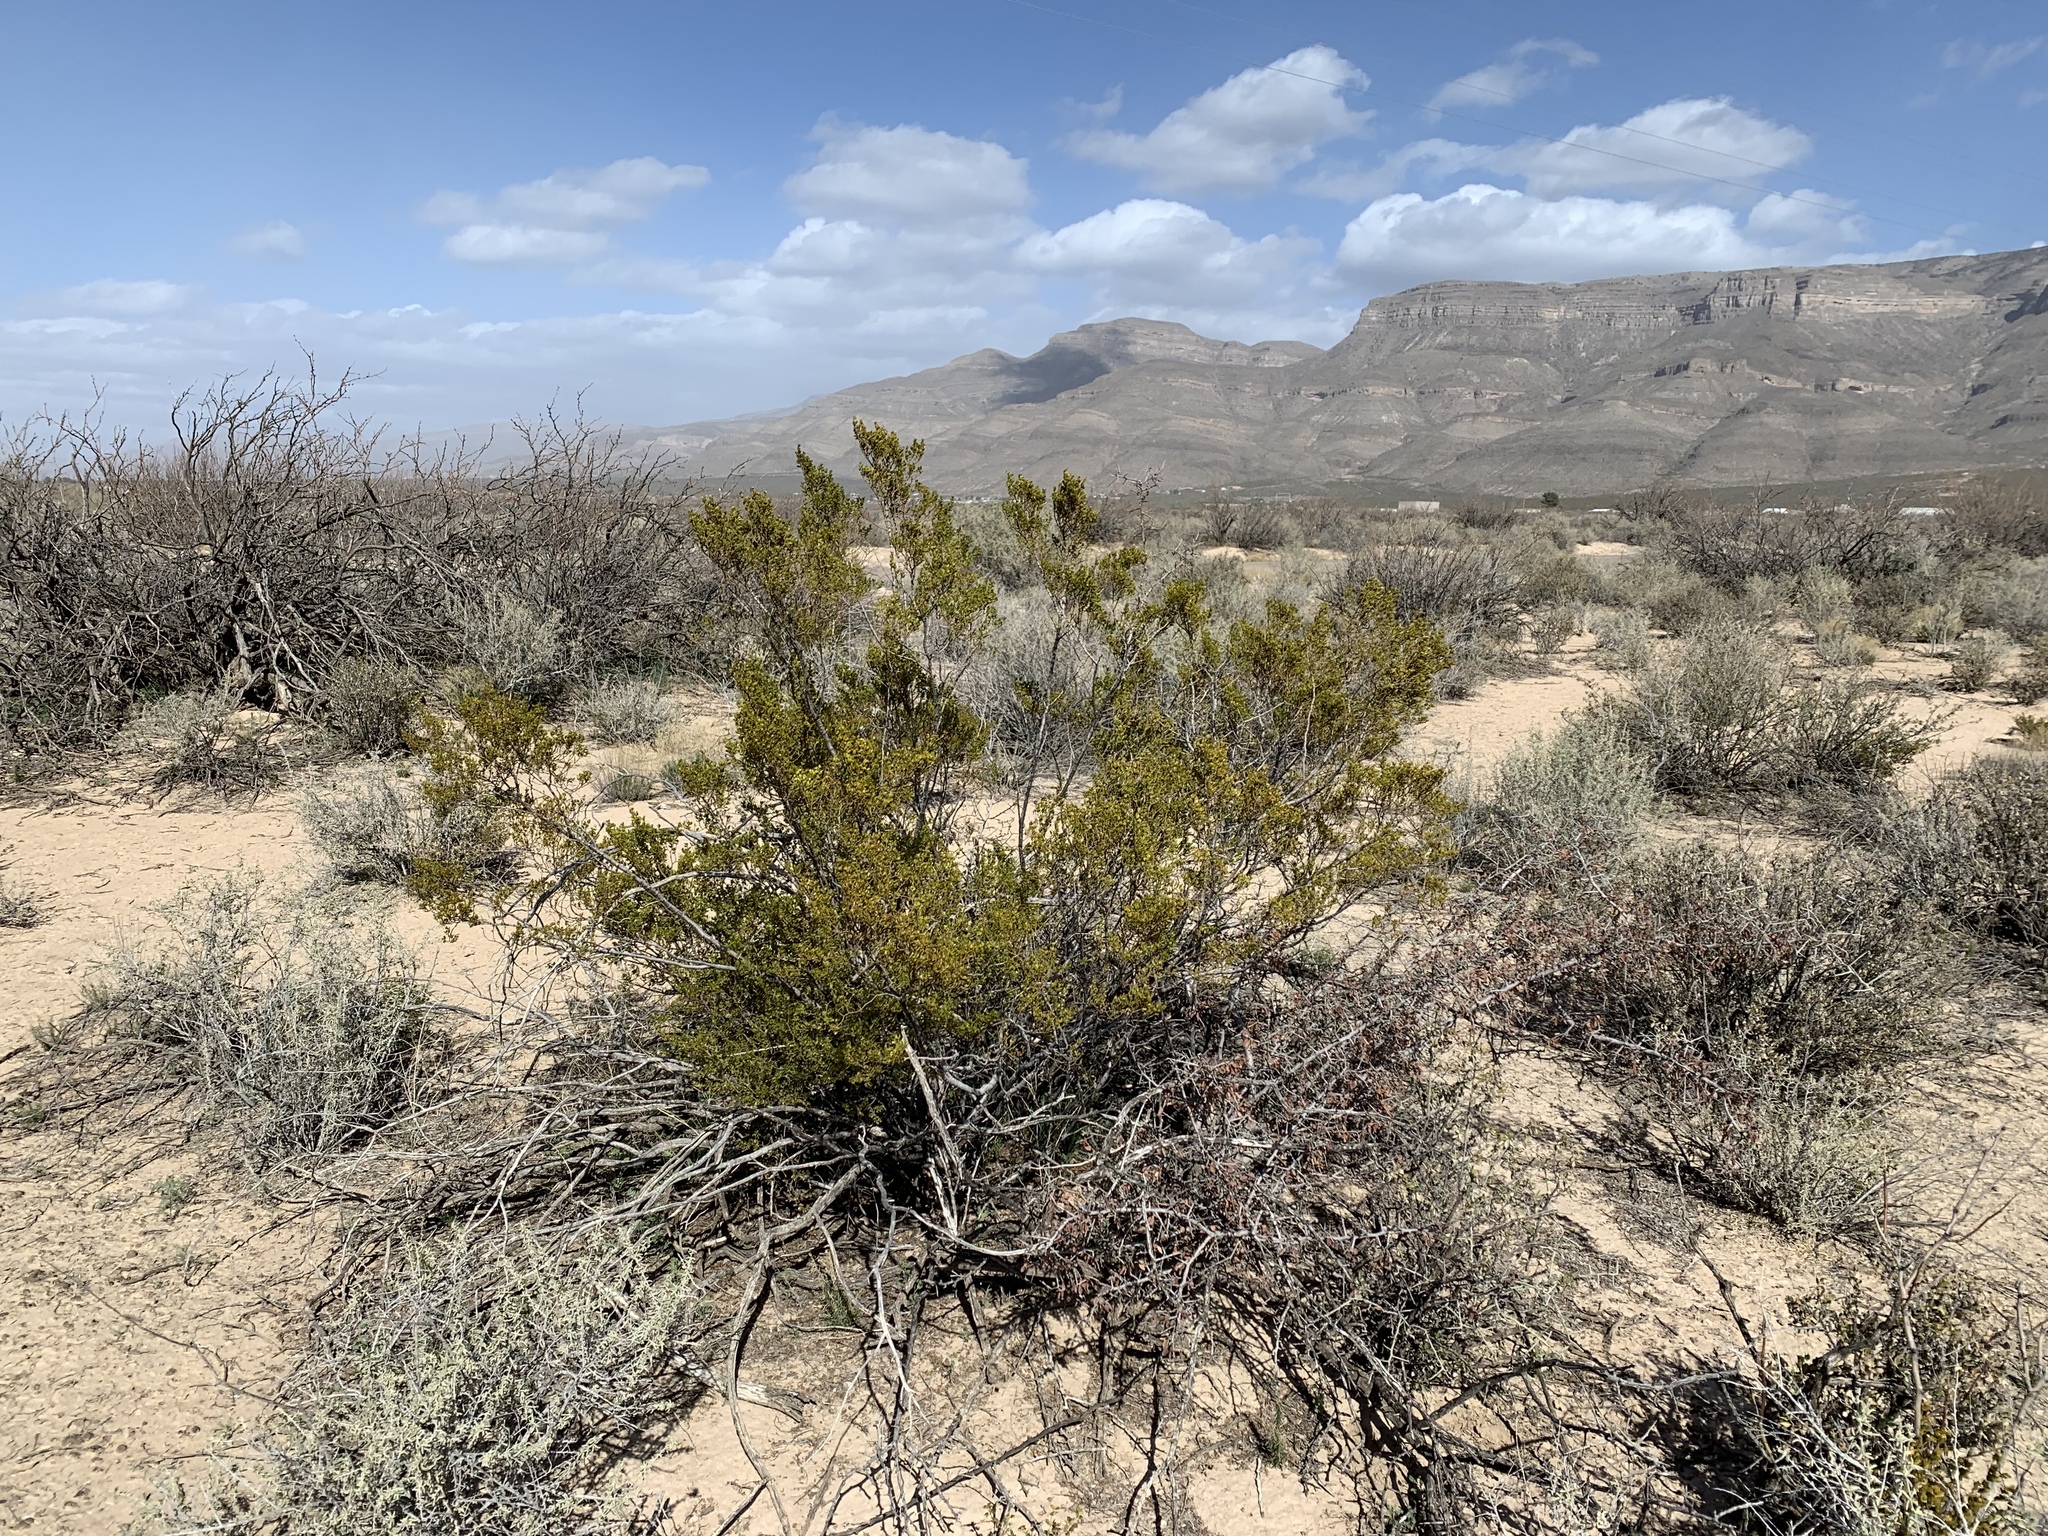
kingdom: Plantae
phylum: Tracheophyta
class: Magnoliopsida
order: Zygophyllales
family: Zygophyllaceae
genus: Larrea
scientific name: Larrea tridentata
